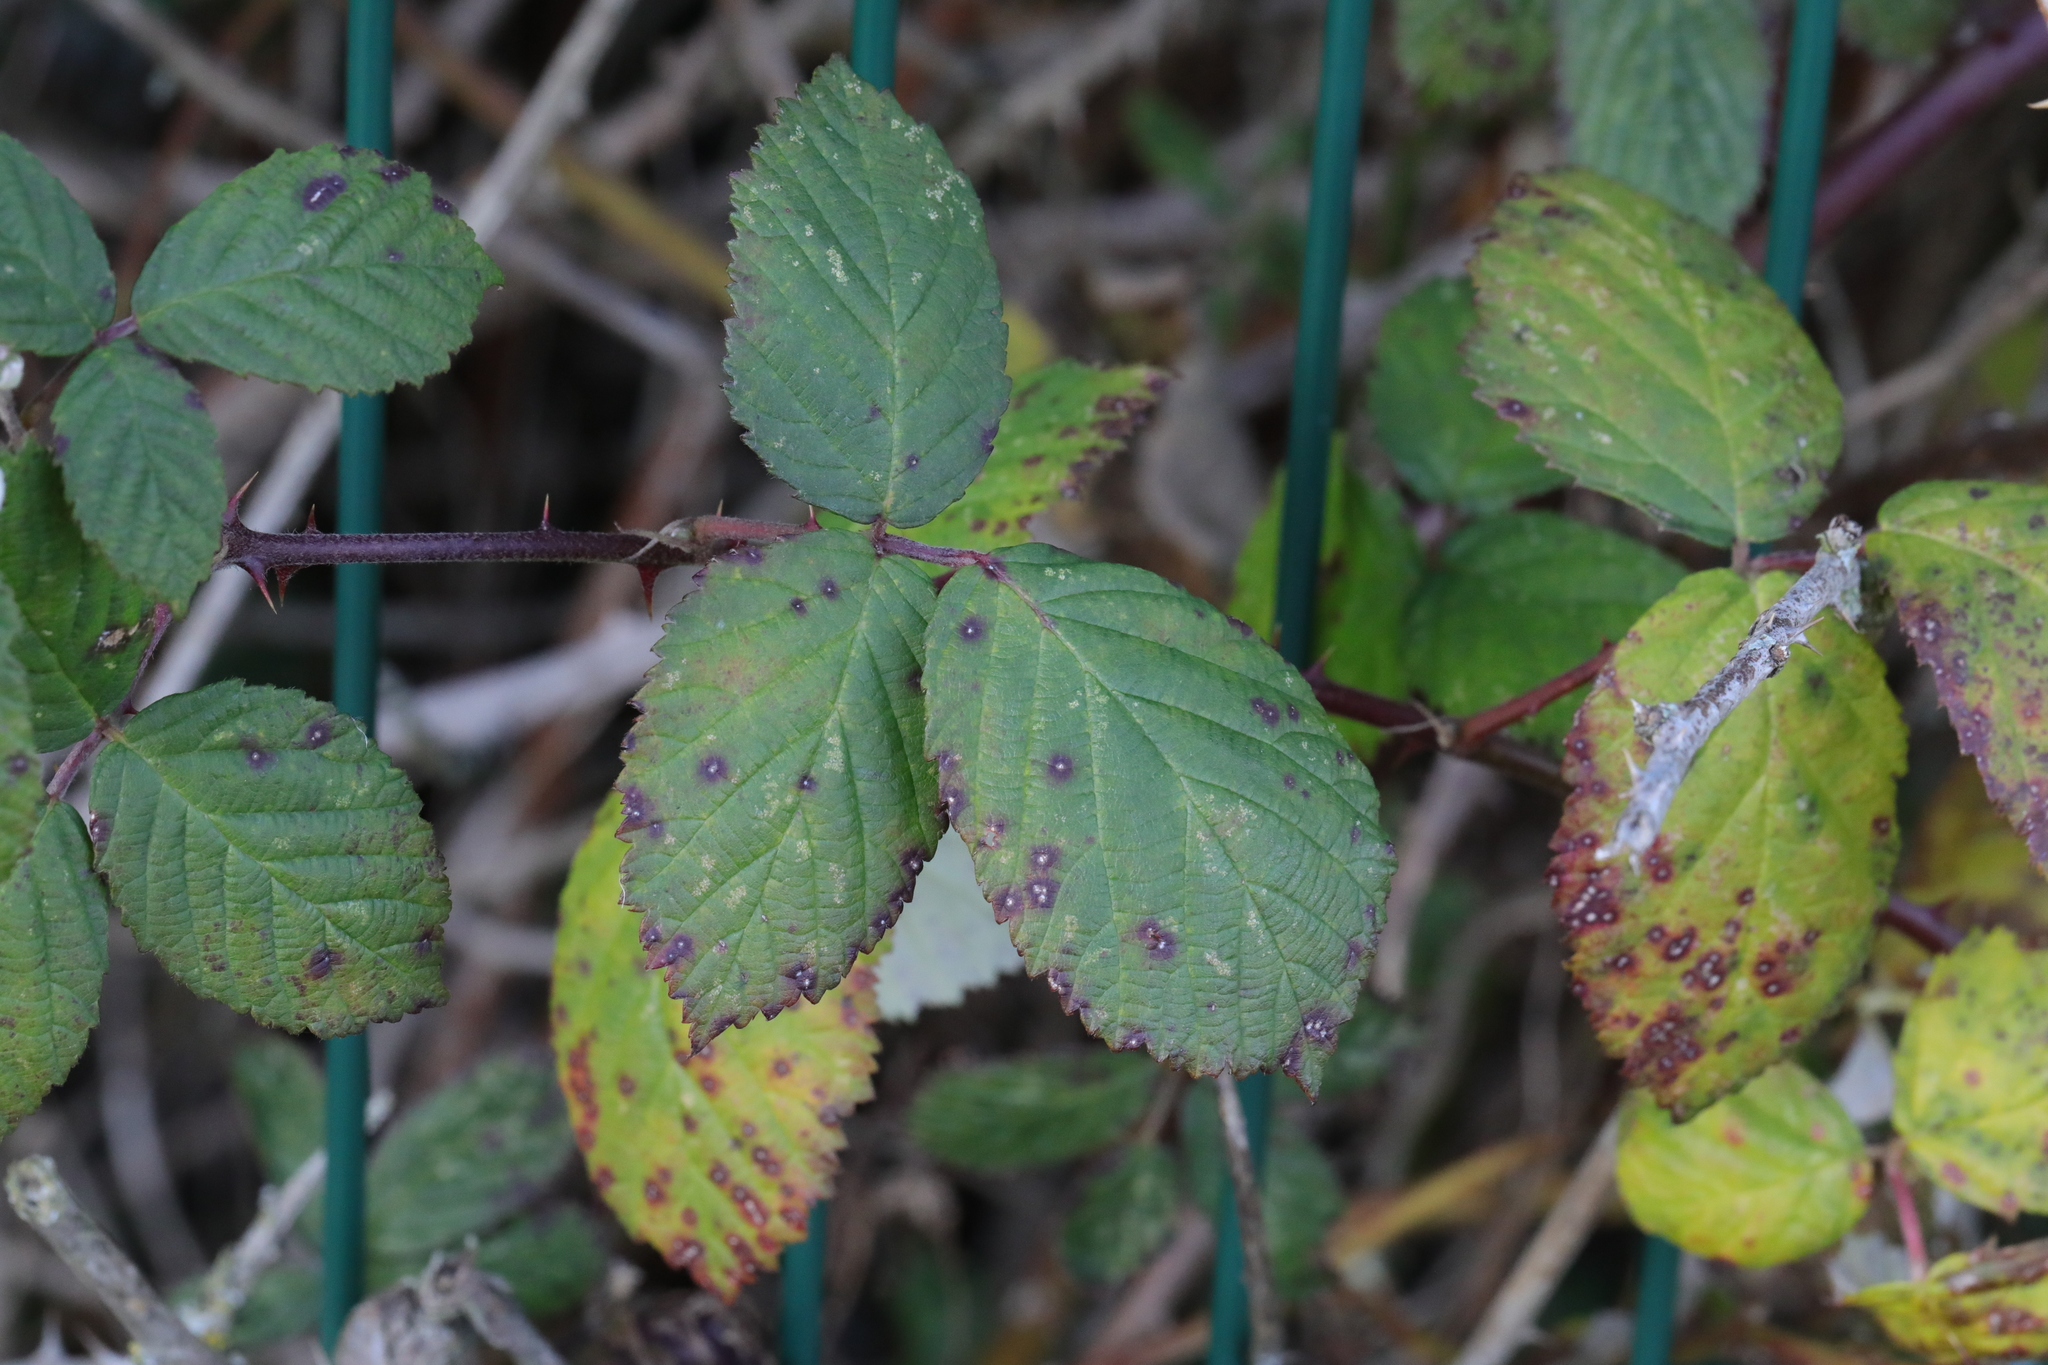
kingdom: Plantae
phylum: Tracheophyta
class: Magnoliopsida
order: Rosales
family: Rosaceae
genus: Rubus
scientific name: Rubus armeniacus
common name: Himalayan blackberry
